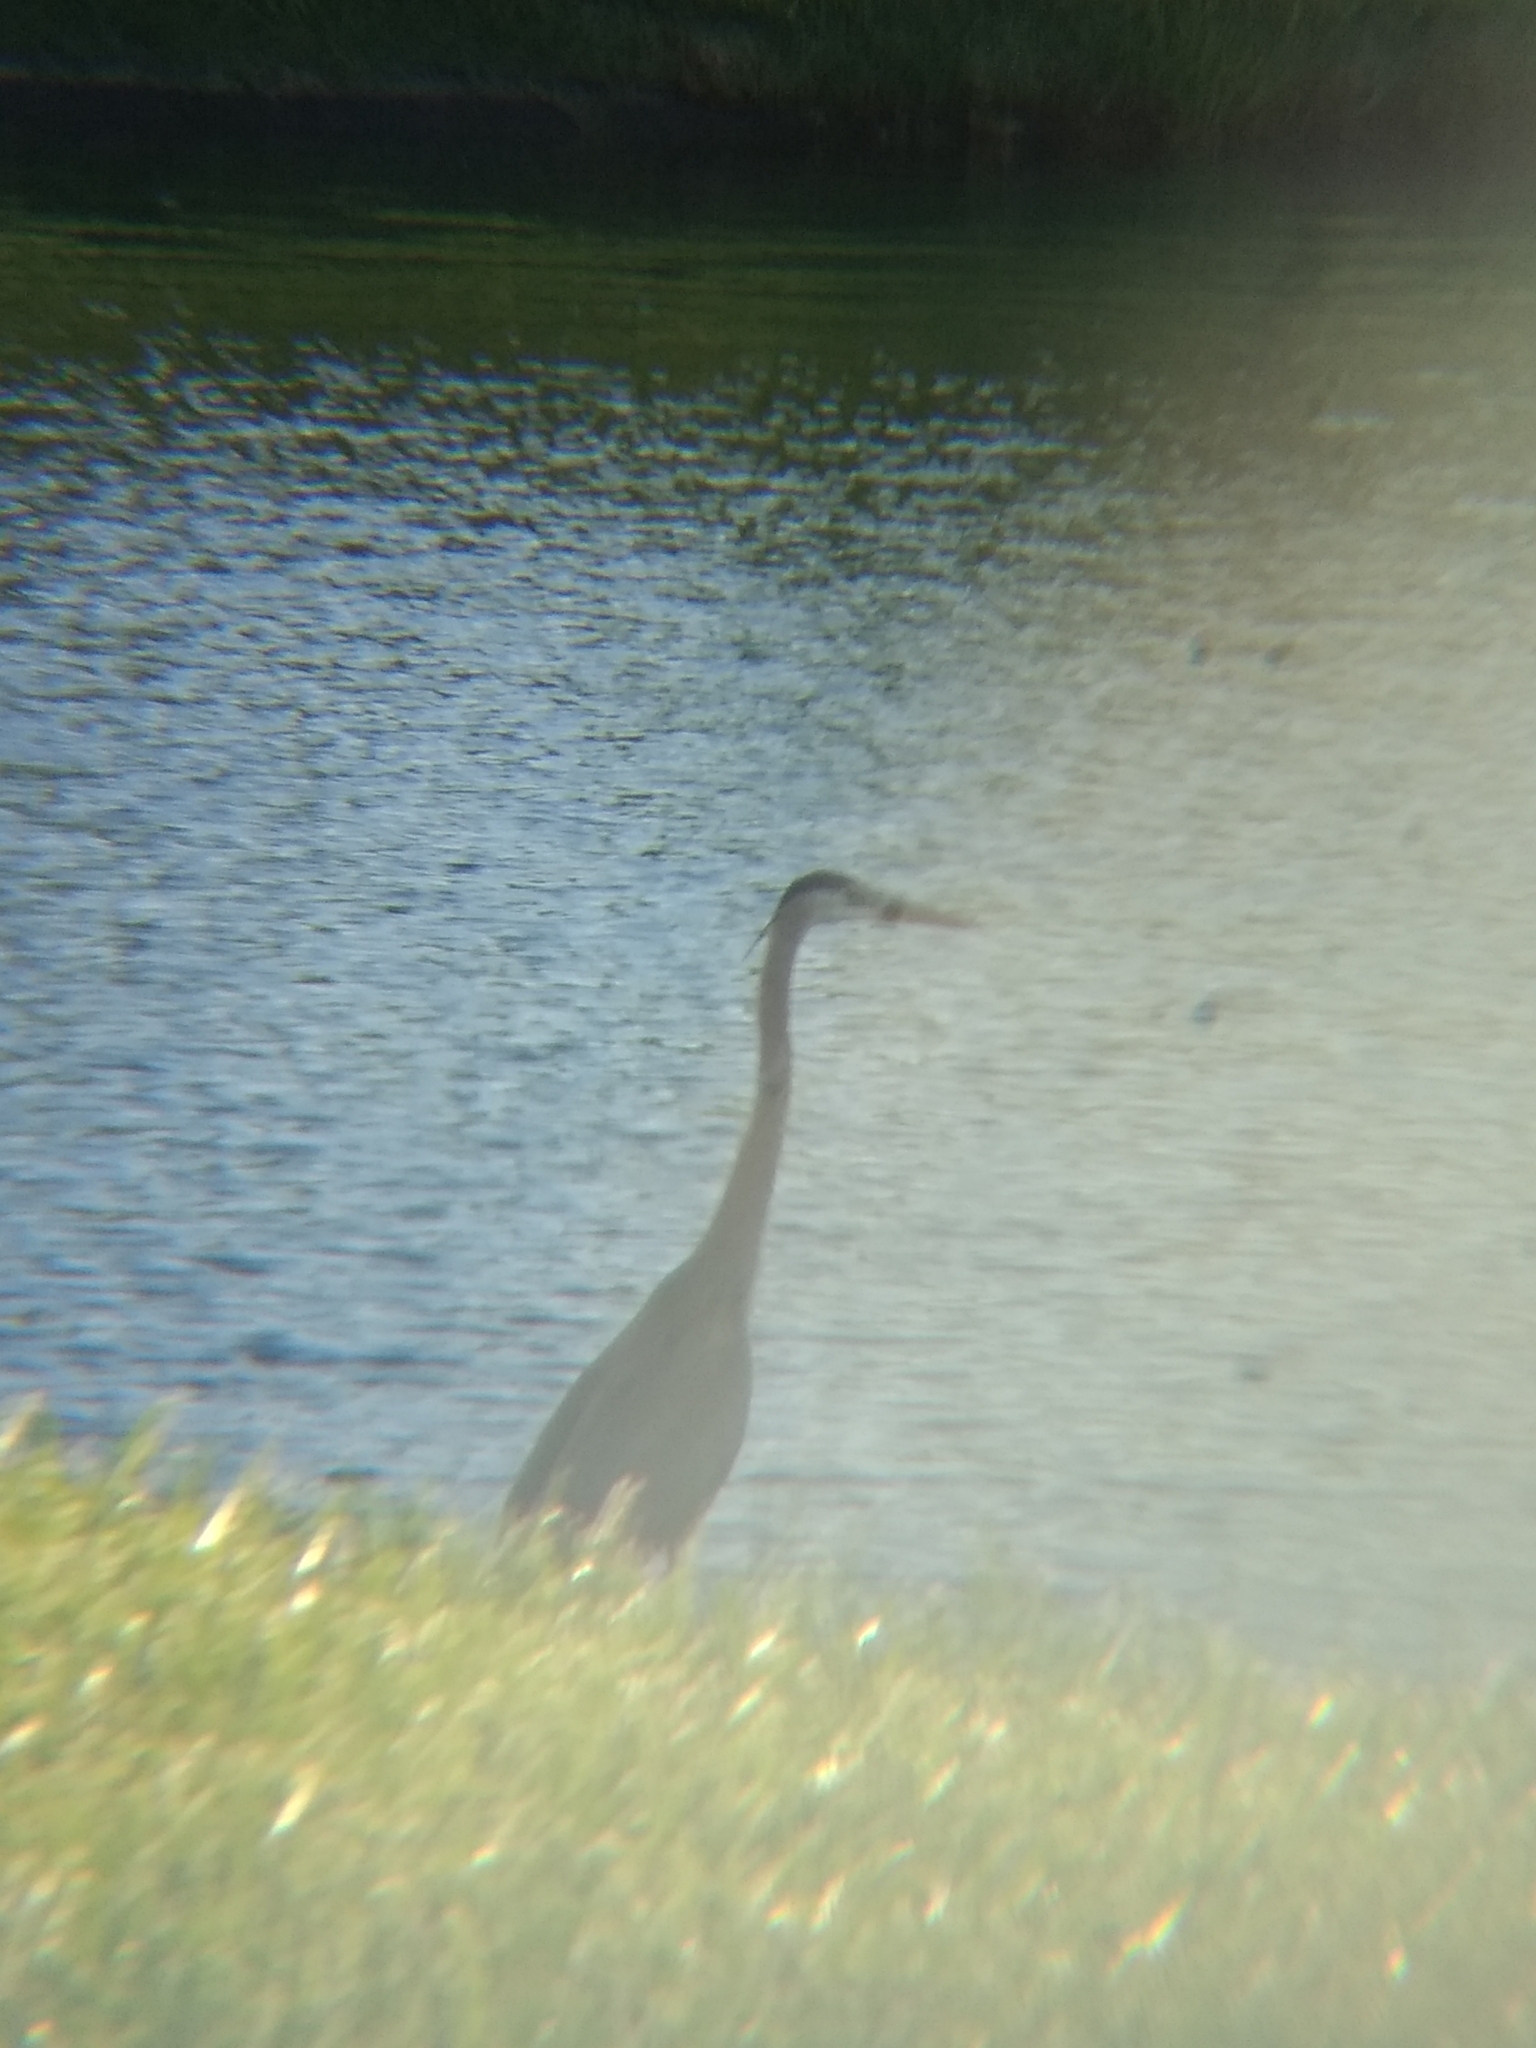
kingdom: Animalia
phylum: Chordata
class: Aves
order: Pelecaniformes
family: Ardeidae
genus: Ardea
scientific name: Ardea herodias
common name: Great blue heron
